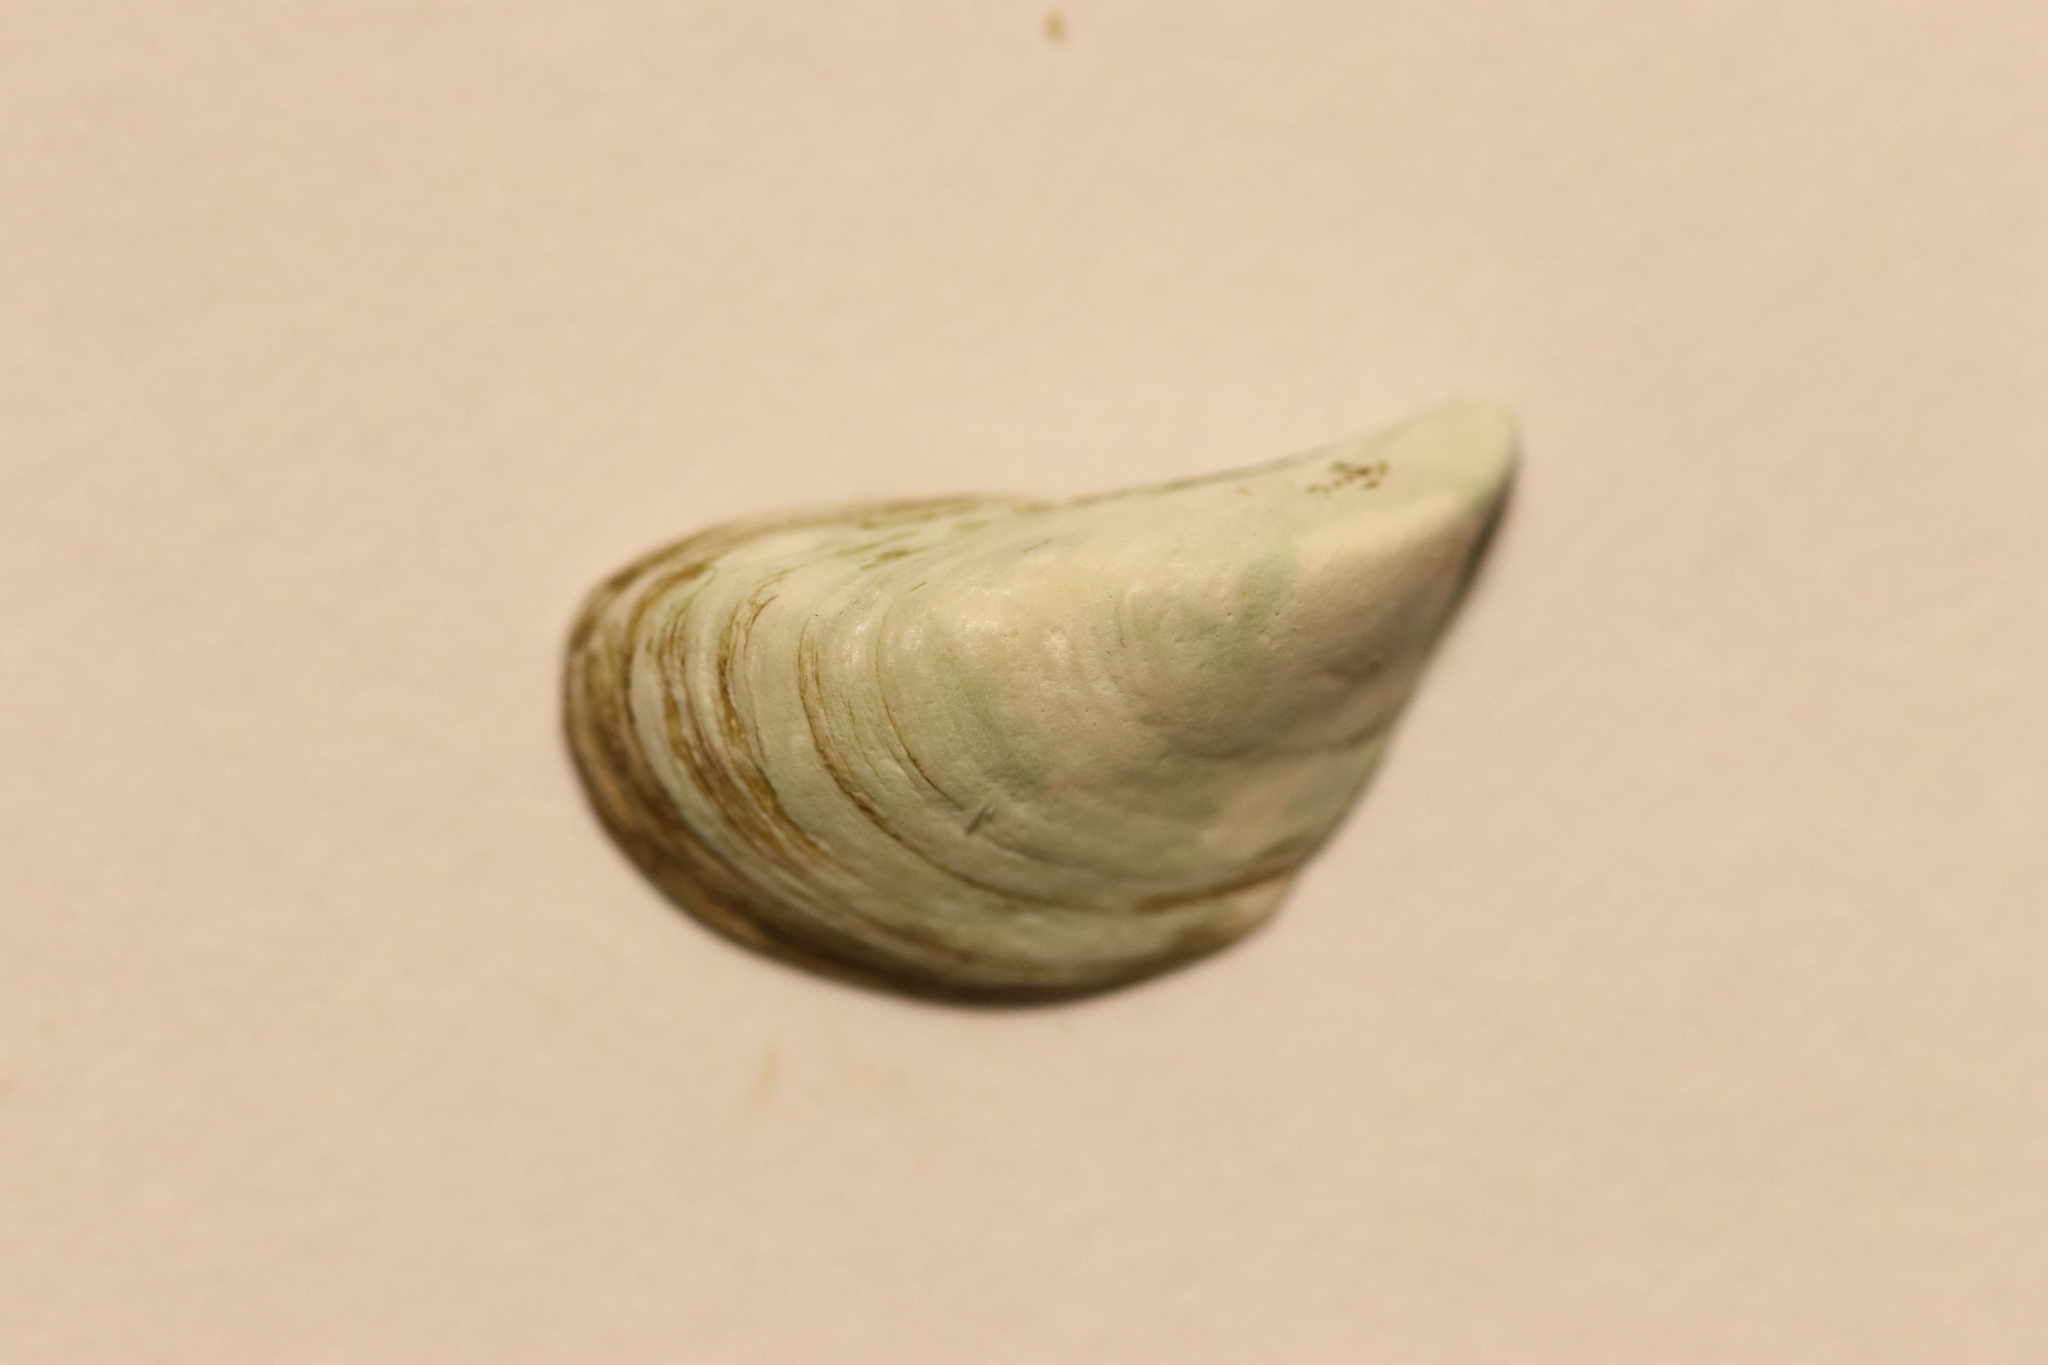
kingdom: Animalia
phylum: Mollusca
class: Bivalvia
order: Myida
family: Dreissenidae
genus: Dreissena
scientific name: Dreissena polymorpha
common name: Zebra mussel
